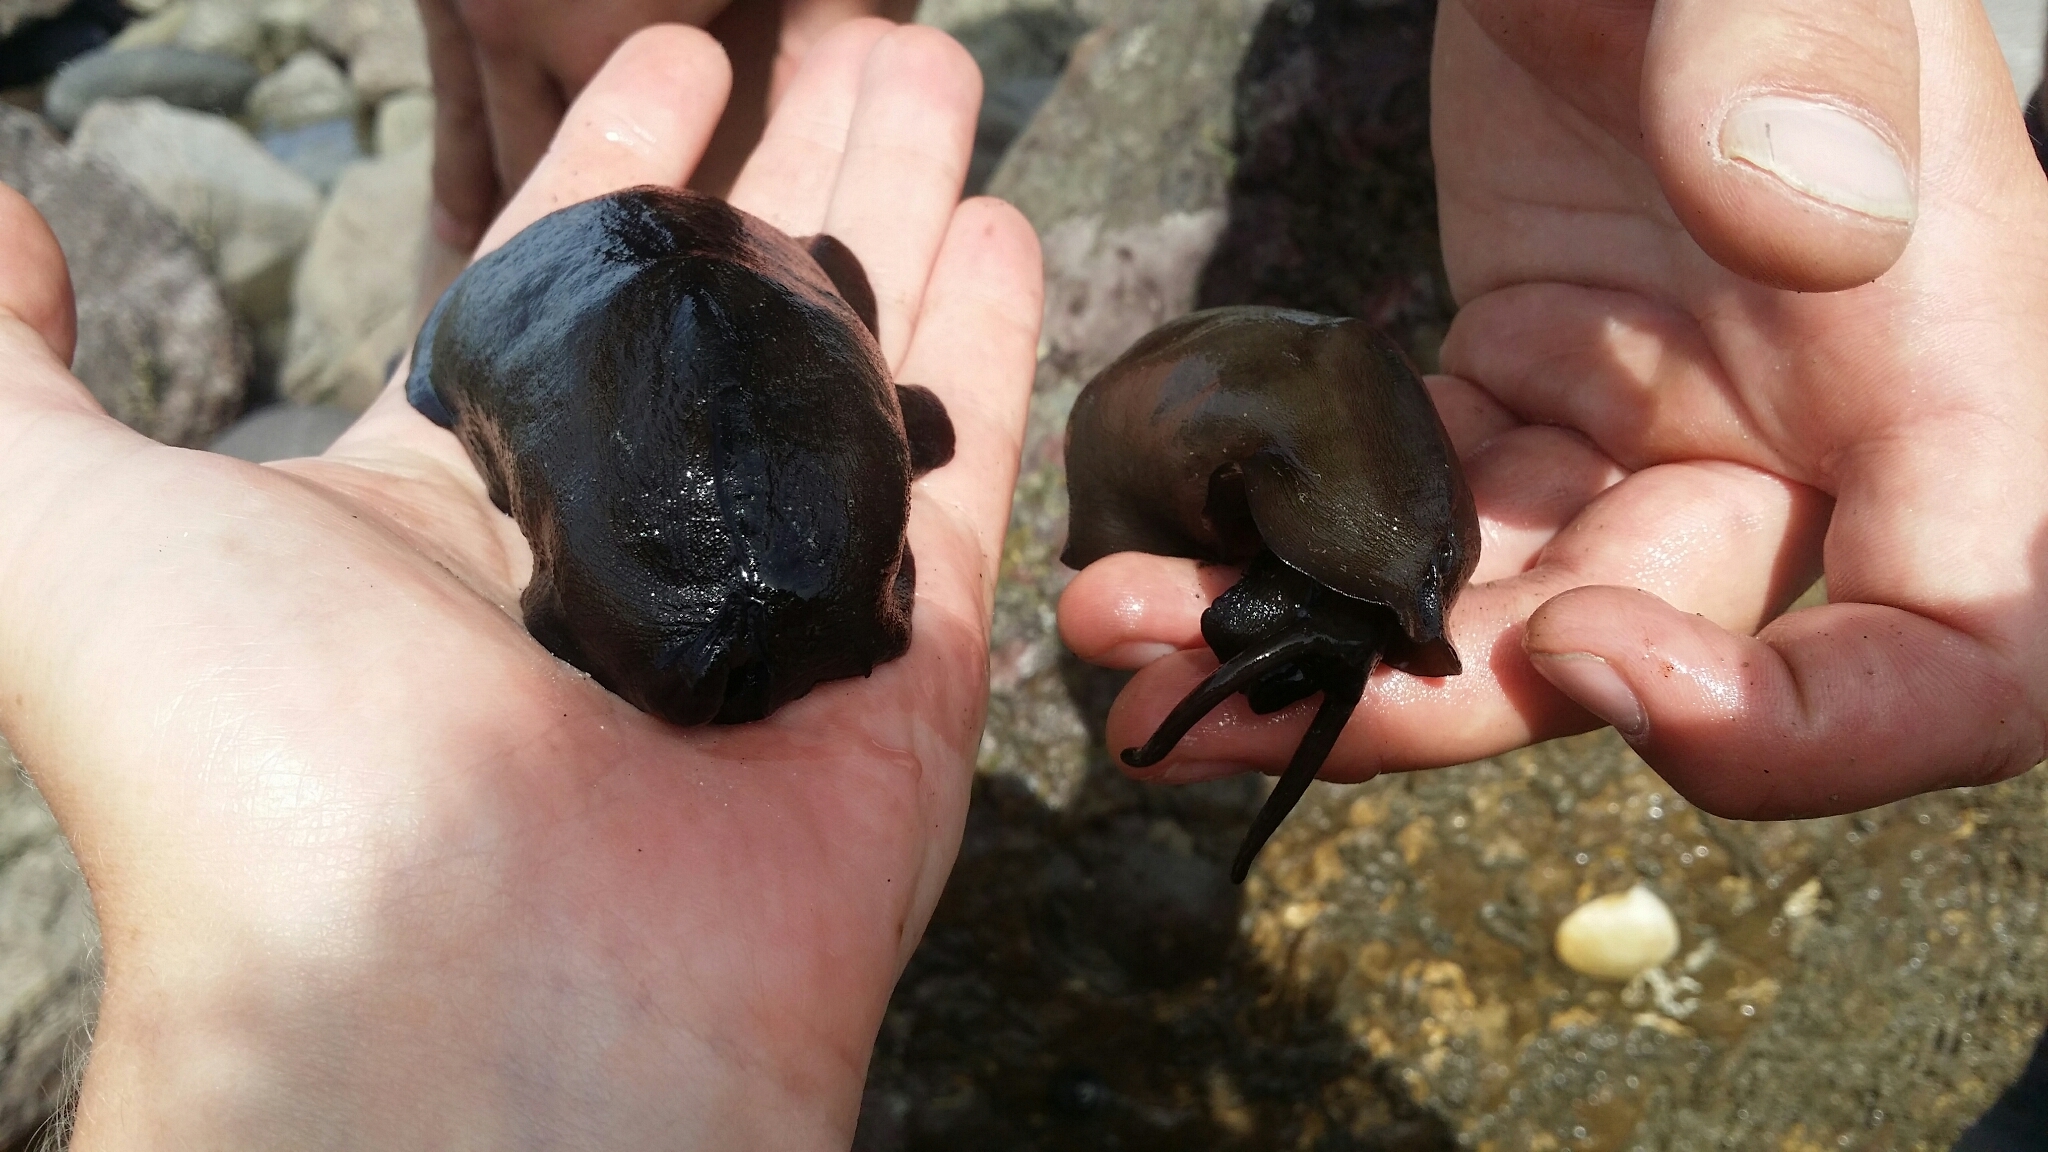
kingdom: Animalia
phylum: Mollusca
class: Gastropoda
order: Lepetellida
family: Fissurellidae
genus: Scutus
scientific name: Scutus breviculus
